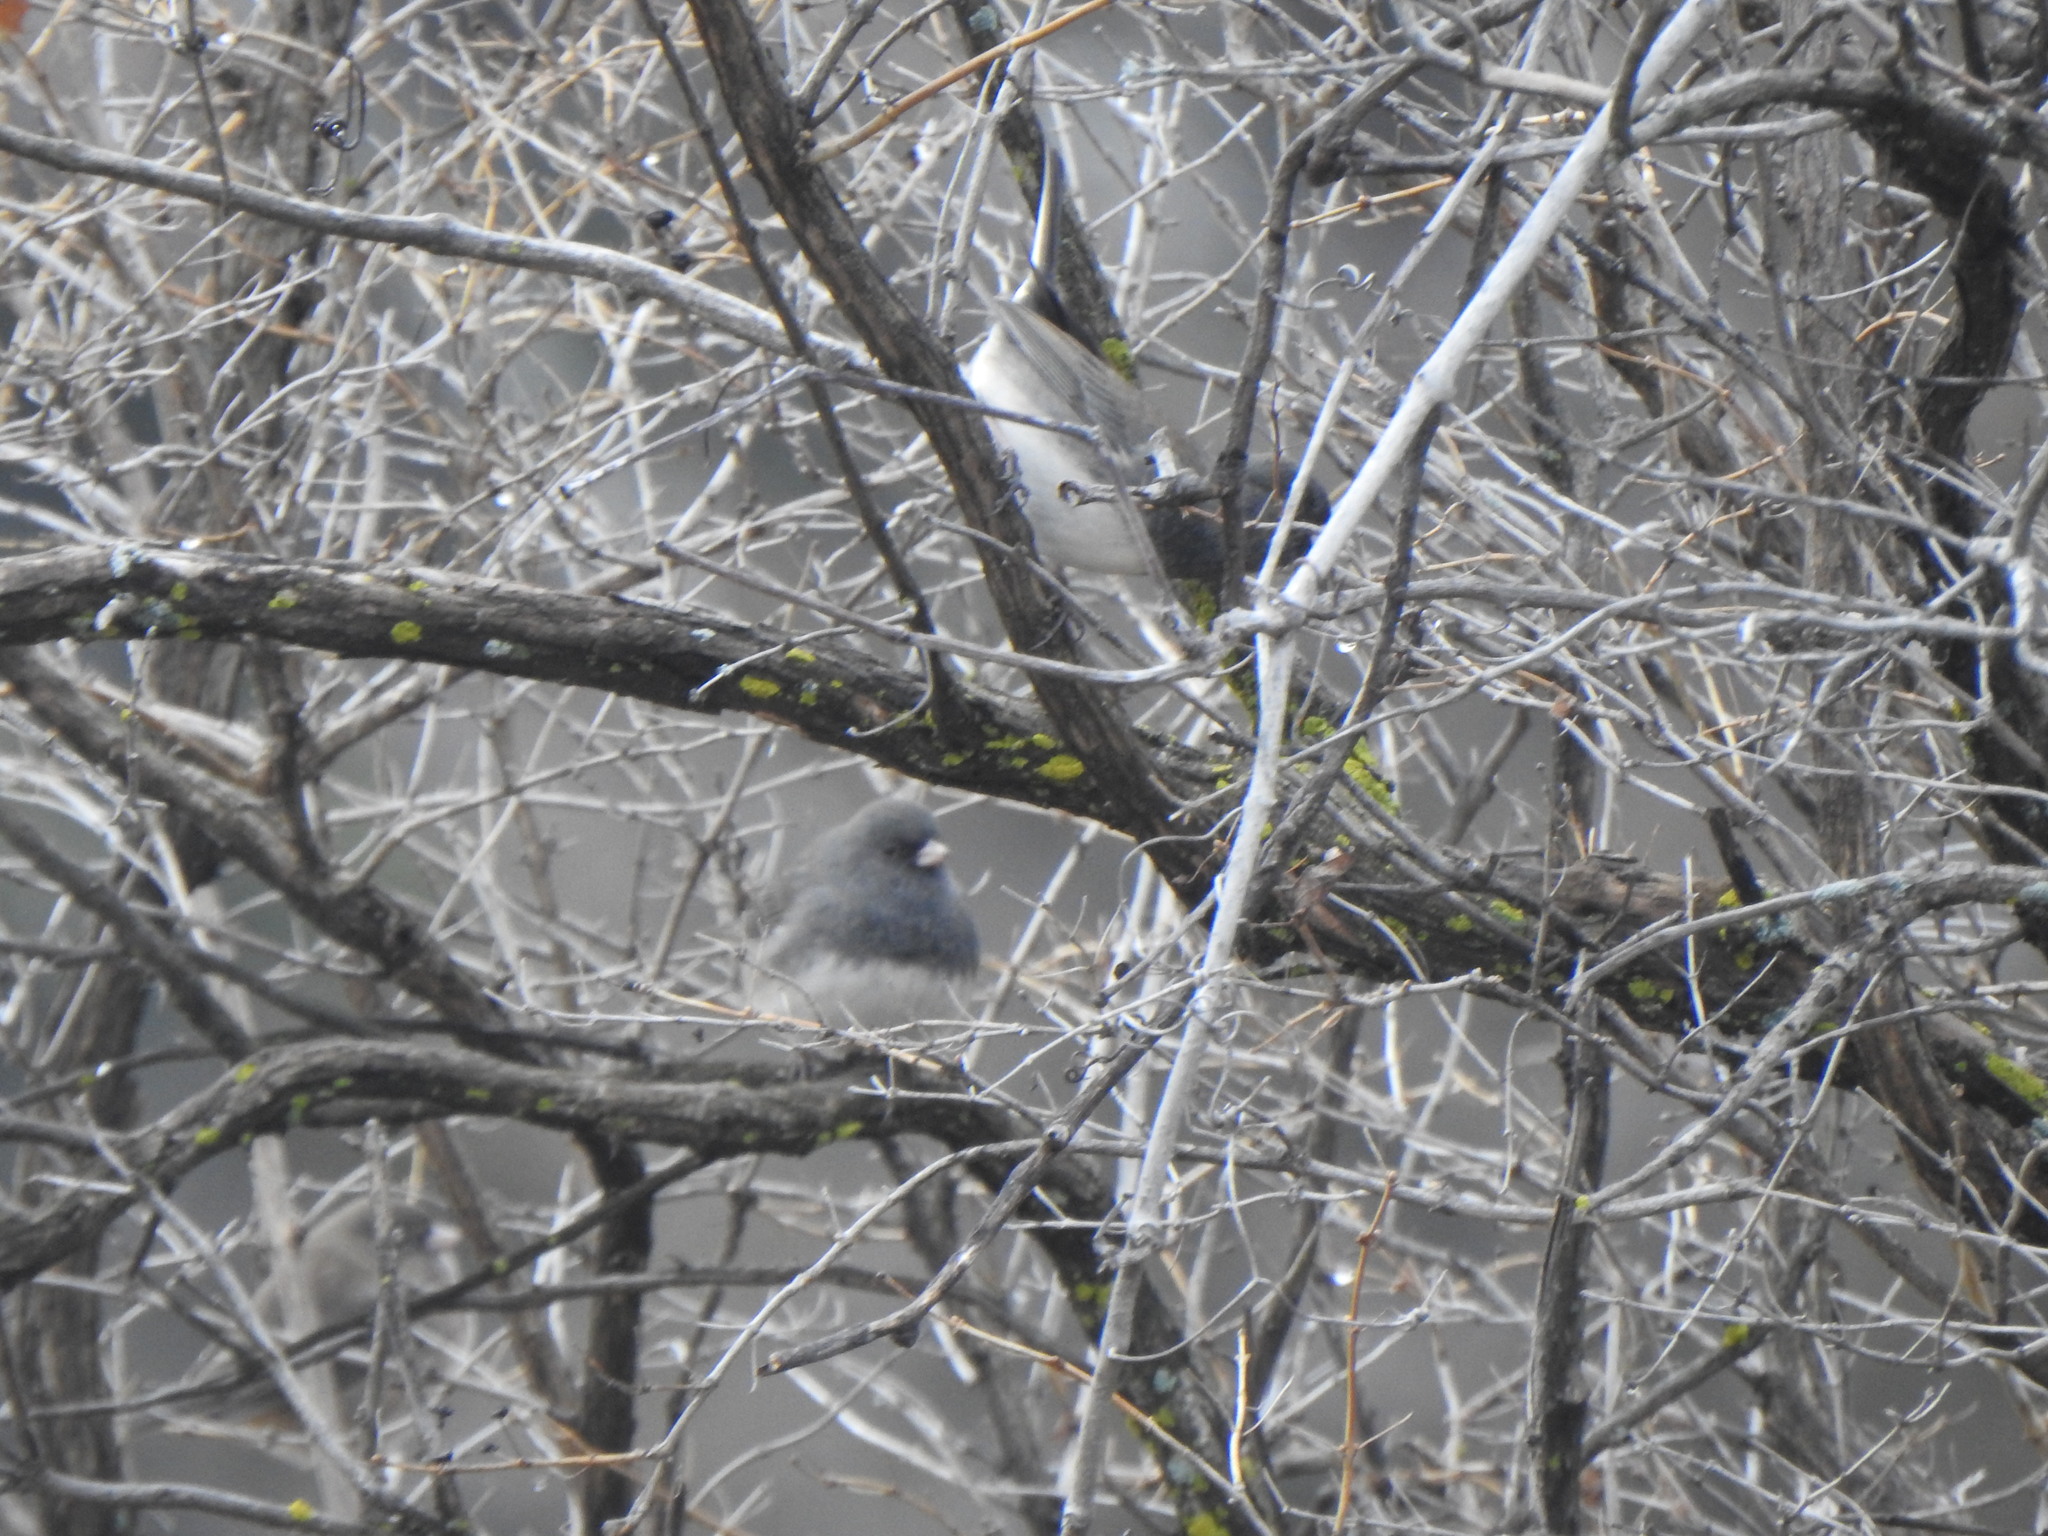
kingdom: Animalia
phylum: Chordata
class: Aves
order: Passeriformes
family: Passerellidae
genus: Junco
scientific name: Junco hyemalis
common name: Dark-eyed junco
